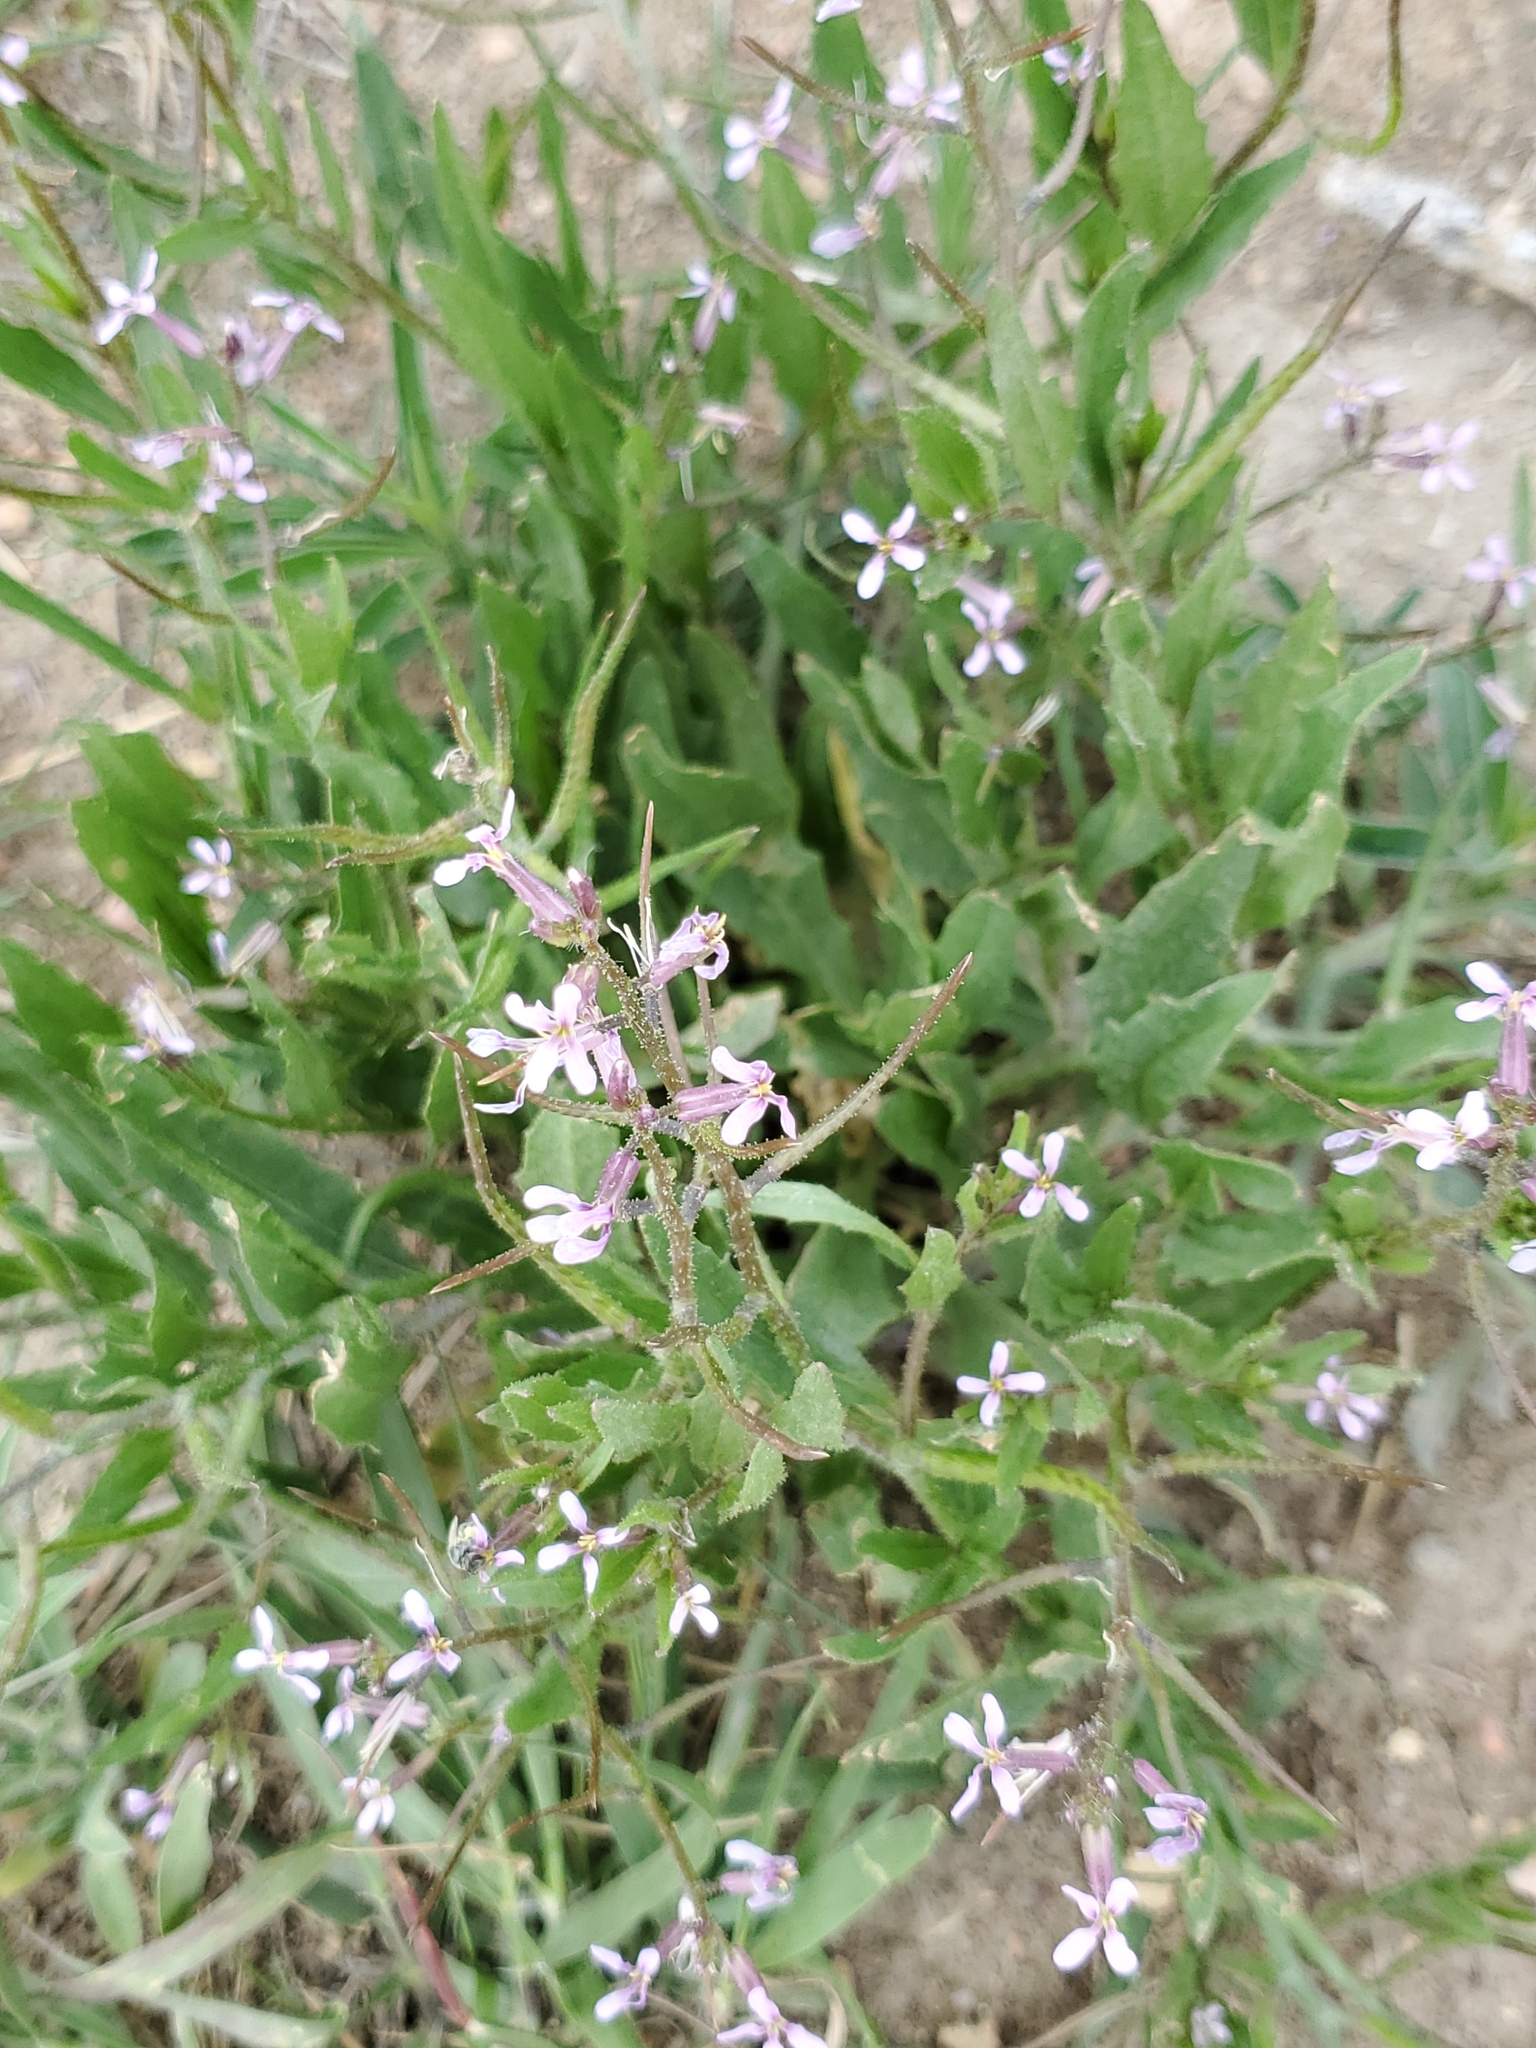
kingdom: Plantae
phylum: Tracheophyta
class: Magnoliopsida
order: Brassicales
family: Brassicaceae
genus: Chorispora
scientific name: Chorispora tenella
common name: Crossflower
